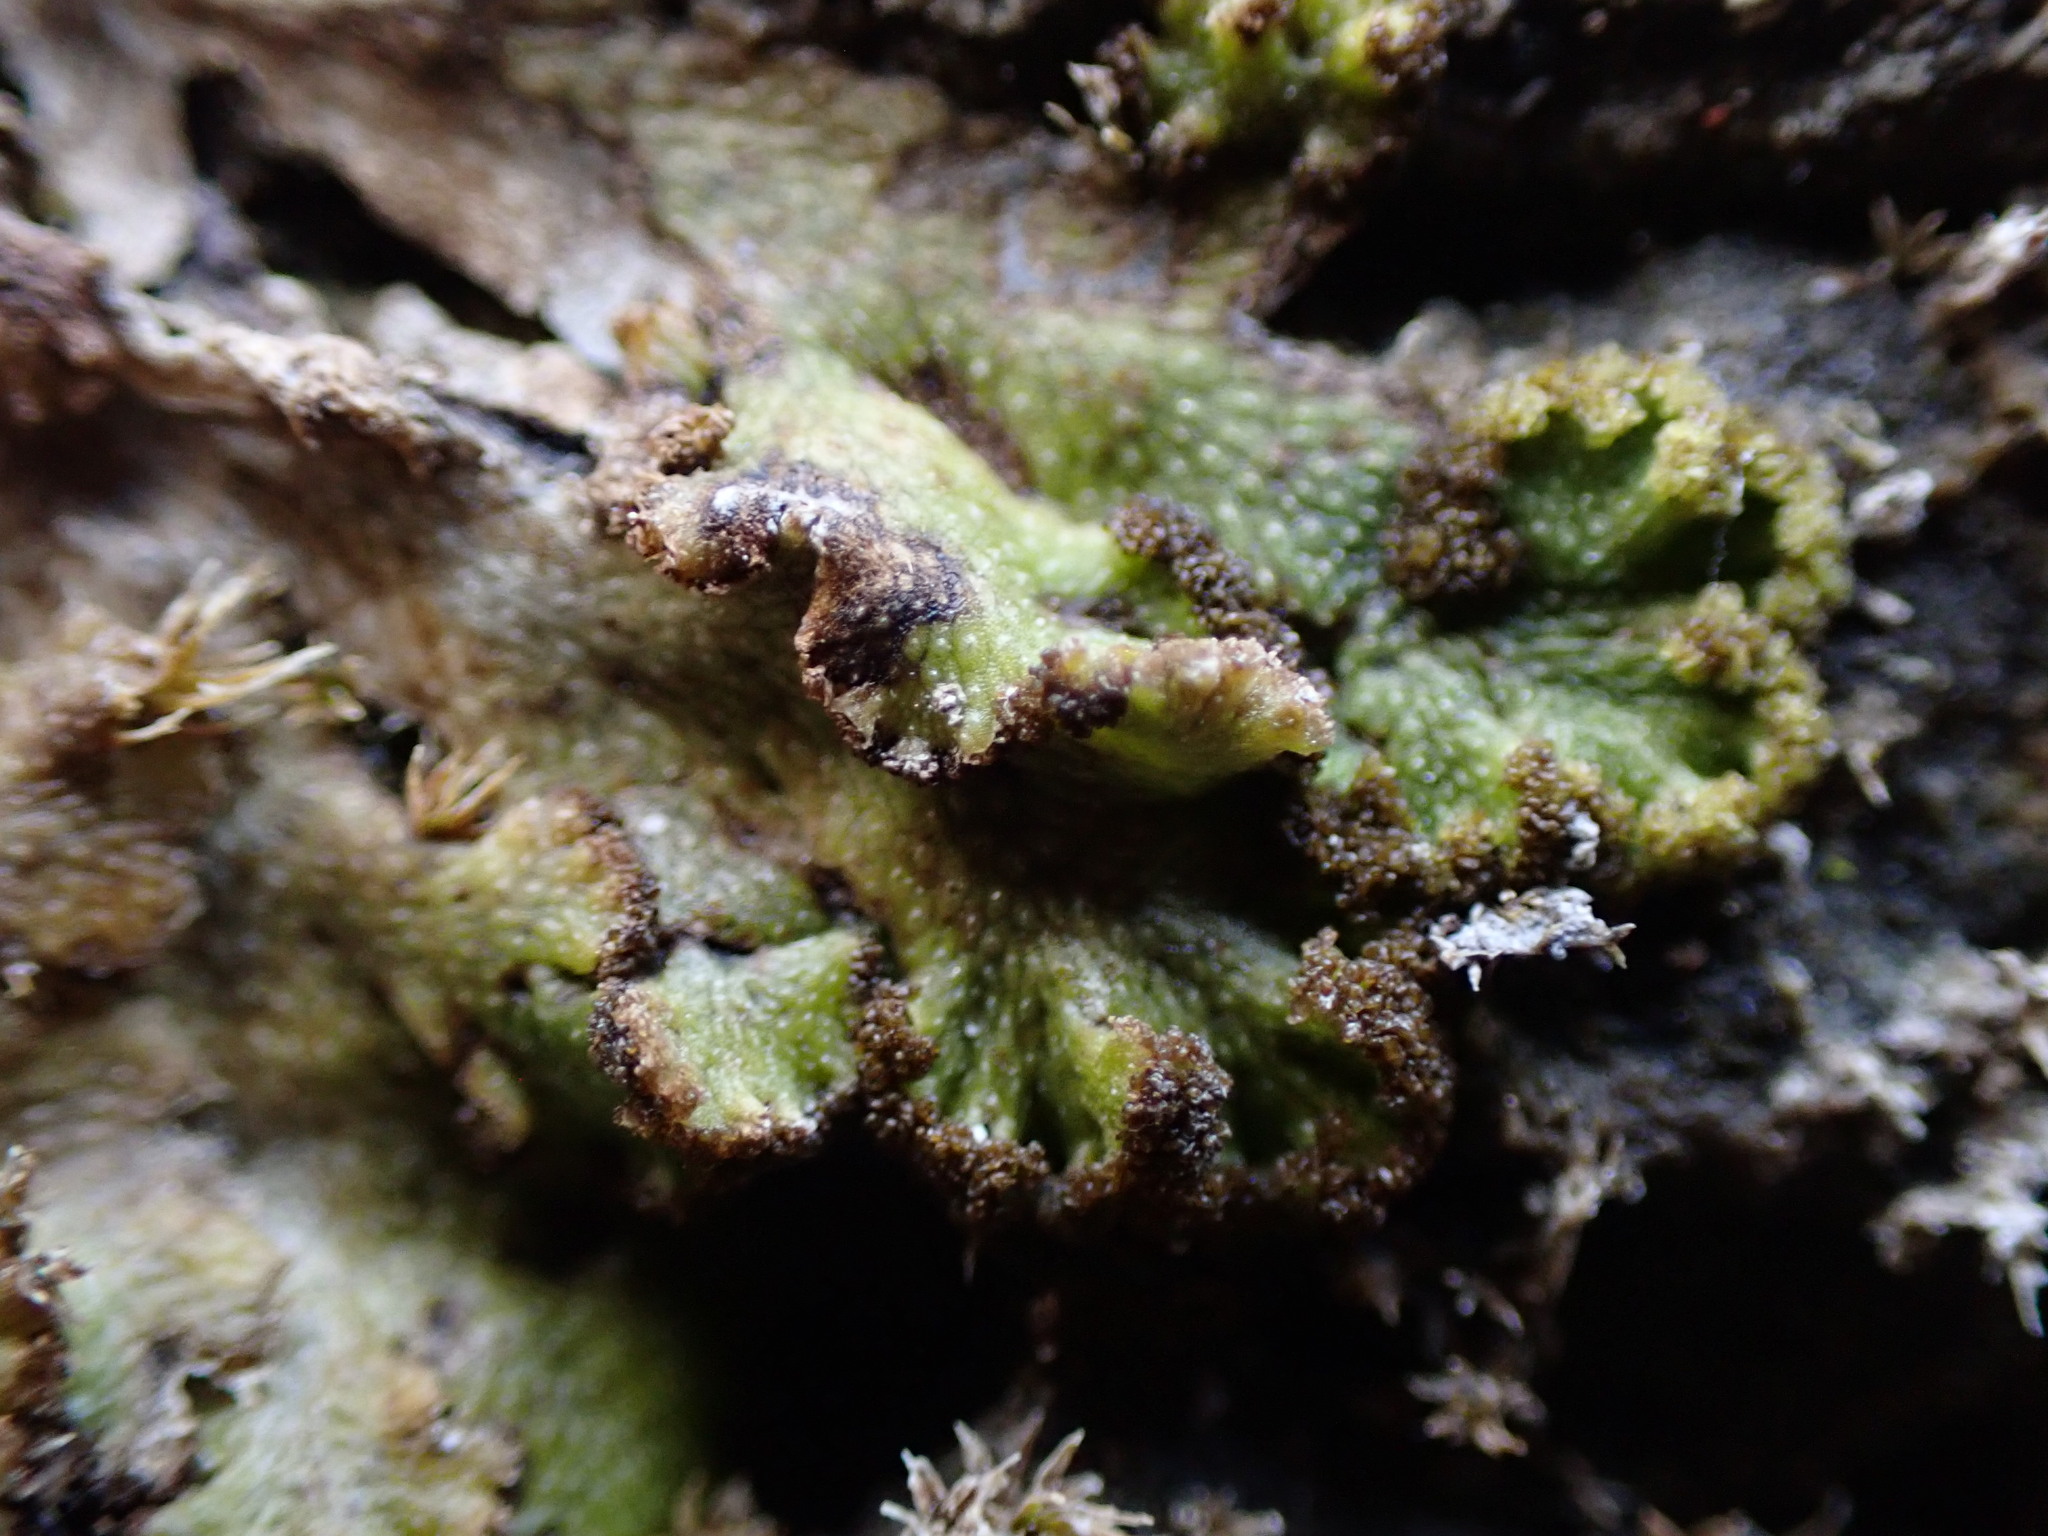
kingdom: Plantae
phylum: Marchantiophyta
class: Marchantiopsida
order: Marchantiales
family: Conocephalaceae
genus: Sandea
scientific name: Sandea japonica
